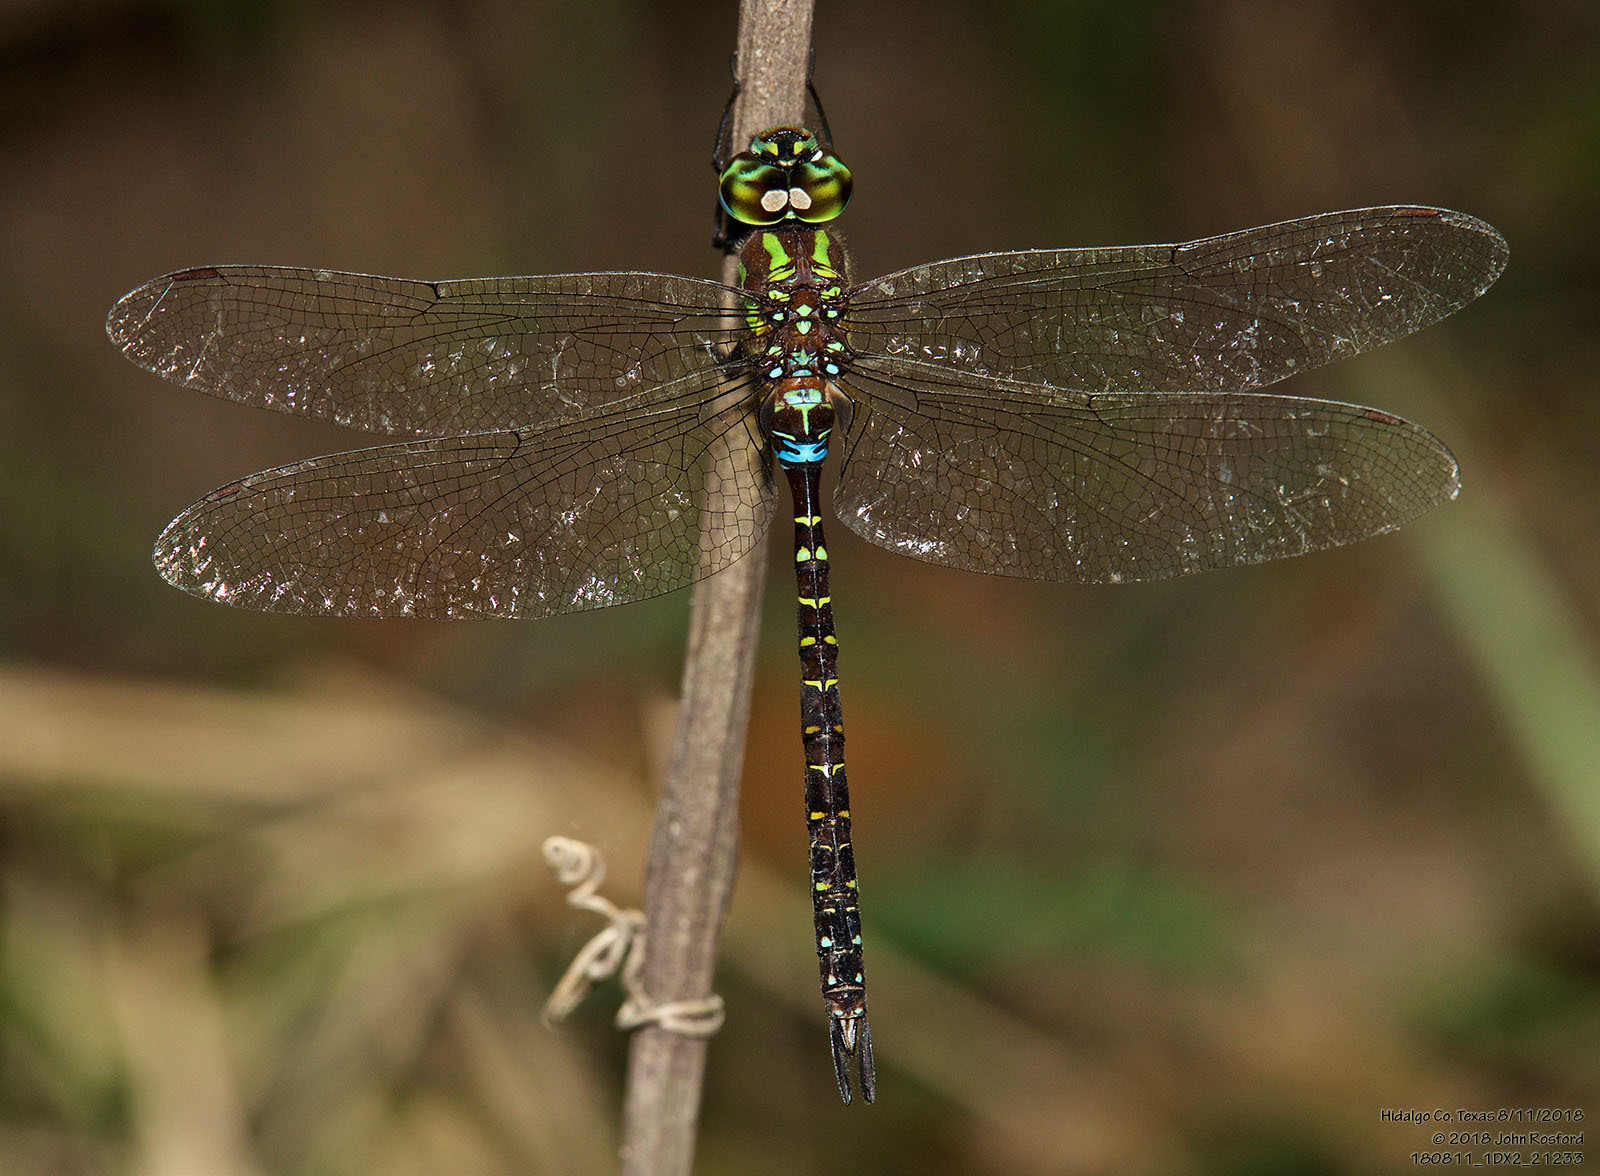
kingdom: Animalia
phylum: Arthropoda
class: Insecta
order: Odonata
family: Aeshnidae
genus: Rhionaeschna
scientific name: Rhionaeschna psilus
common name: Turquoise-tipped darner
